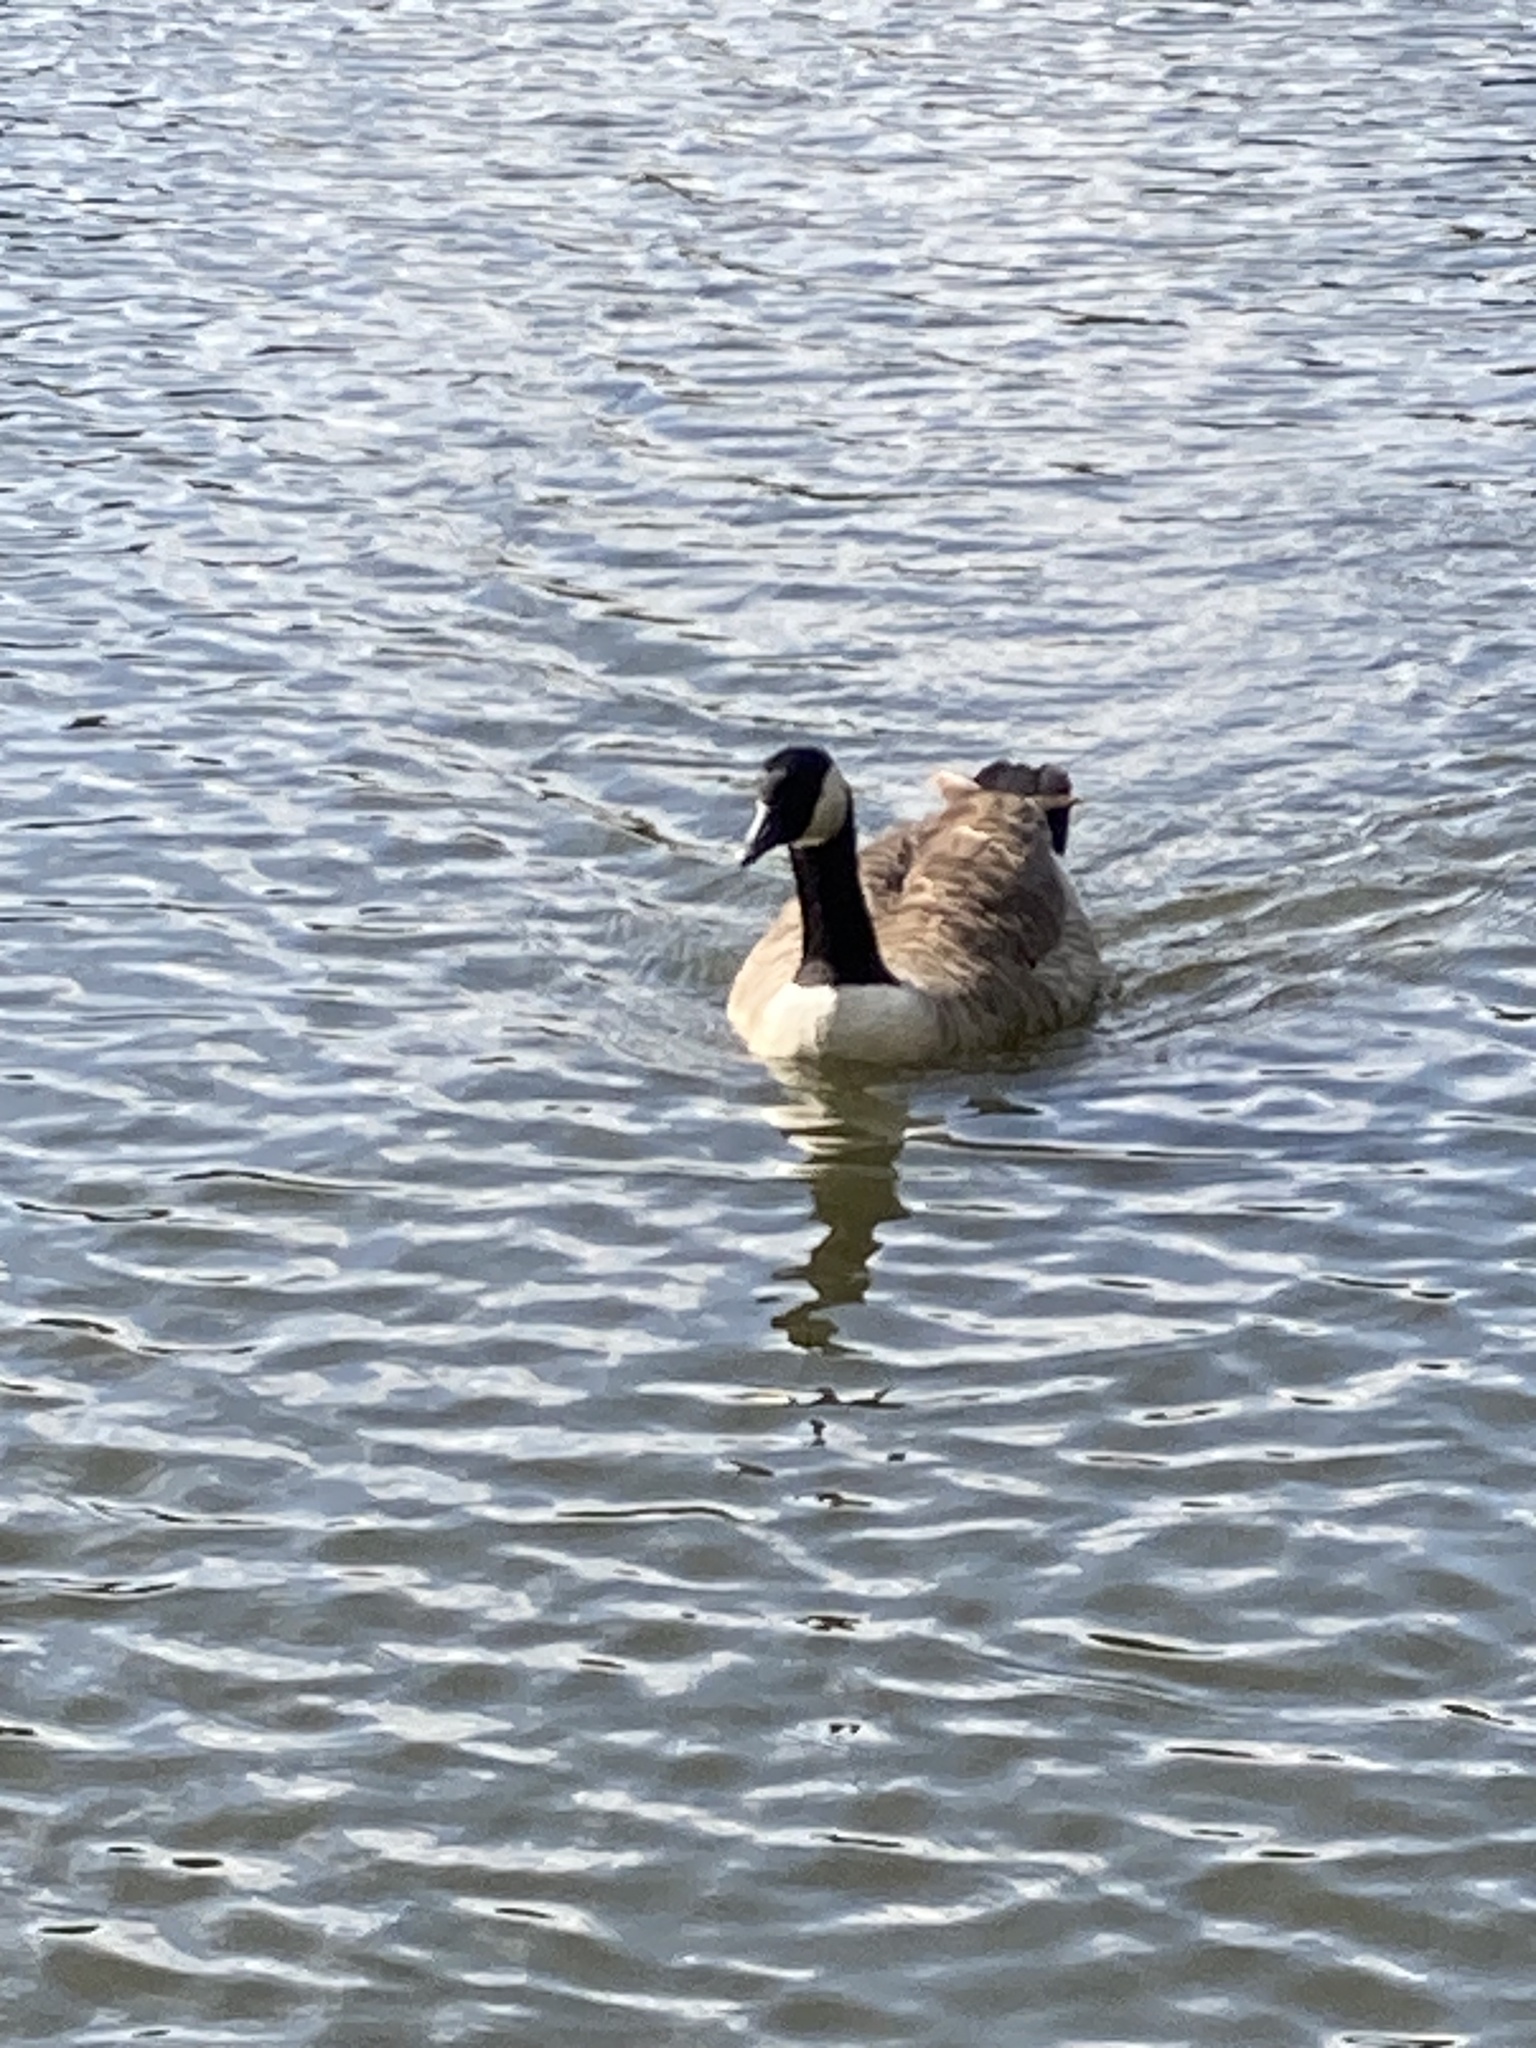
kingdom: Animalia
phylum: Chordata
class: Aves
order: Anseriformes
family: Anatidae
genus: Branta
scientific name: Branta canadensis
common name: Canada goose
